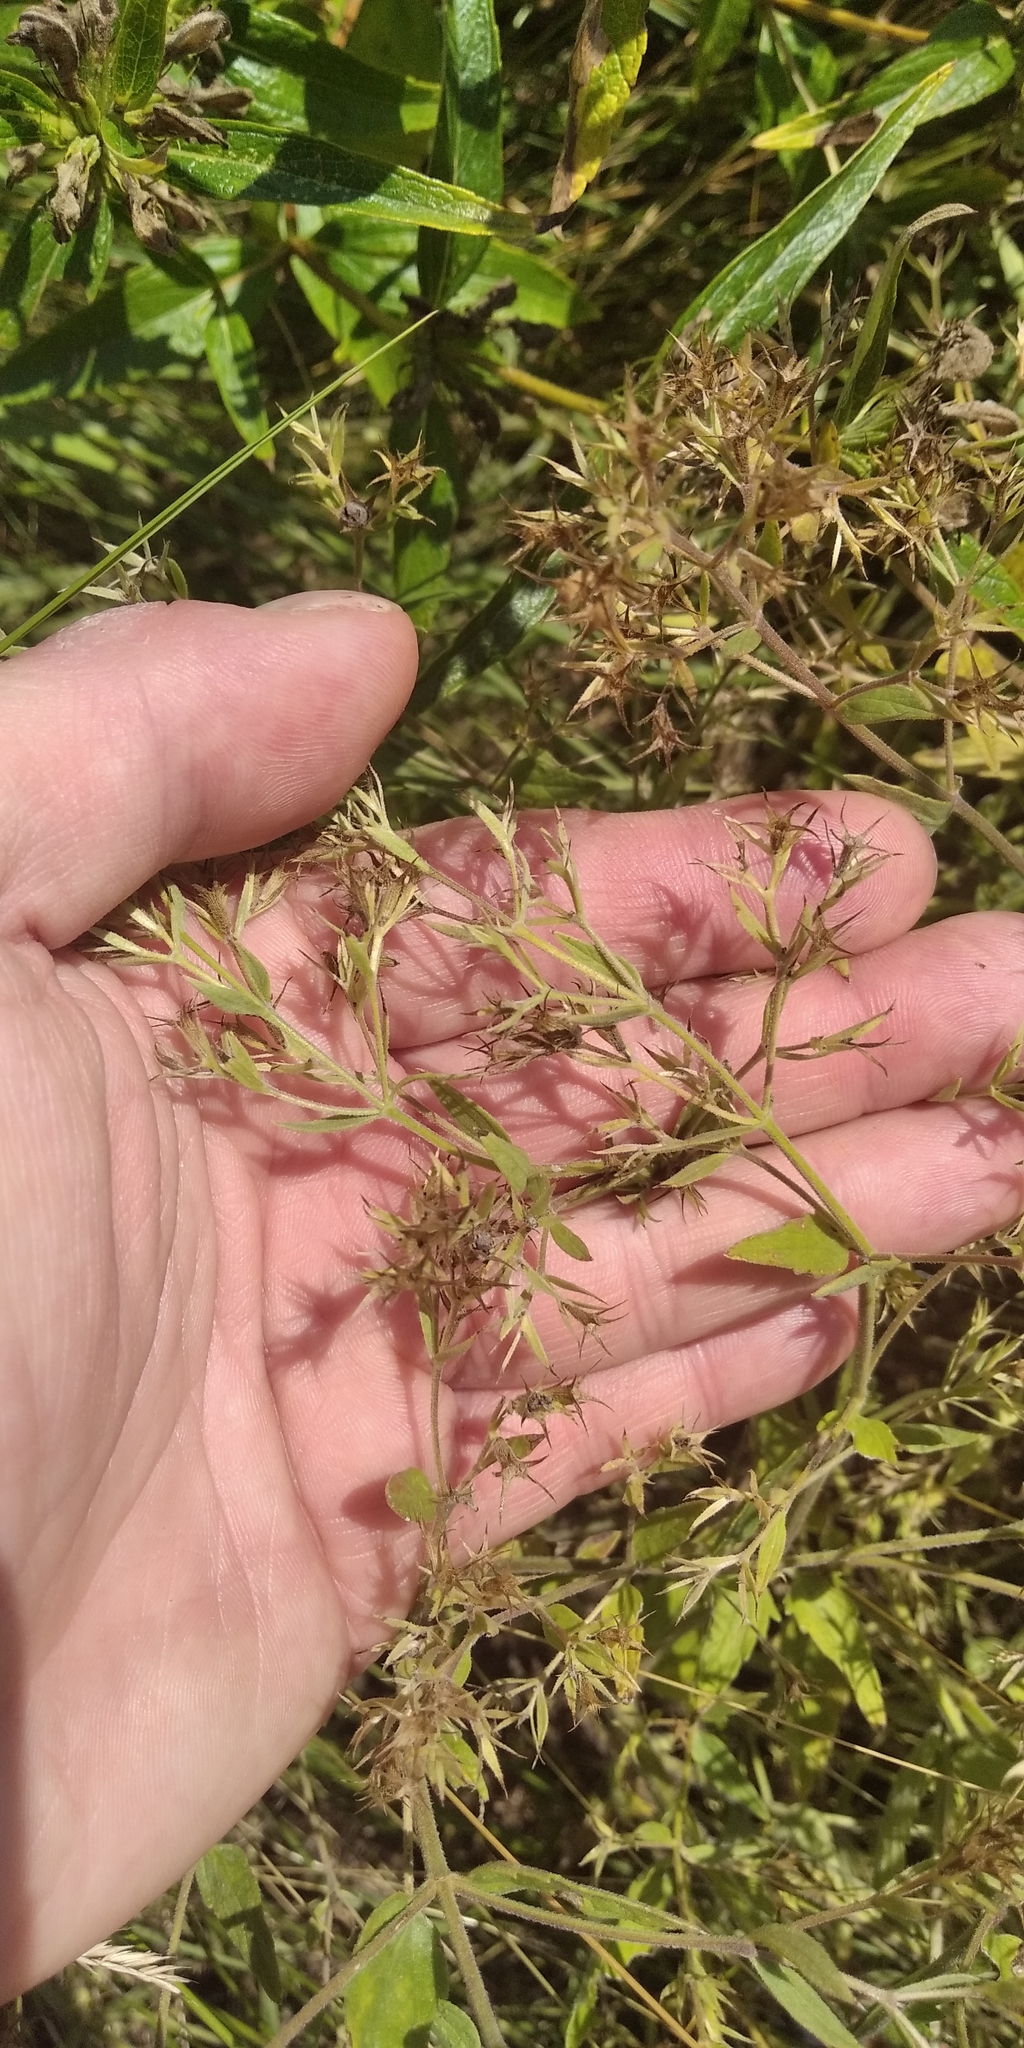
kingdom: Plantae
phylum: Tracheophyta
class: Magnoliopsida
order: Lamiales
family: Lamiaceae
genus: Nepeta
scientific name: Nepeta
